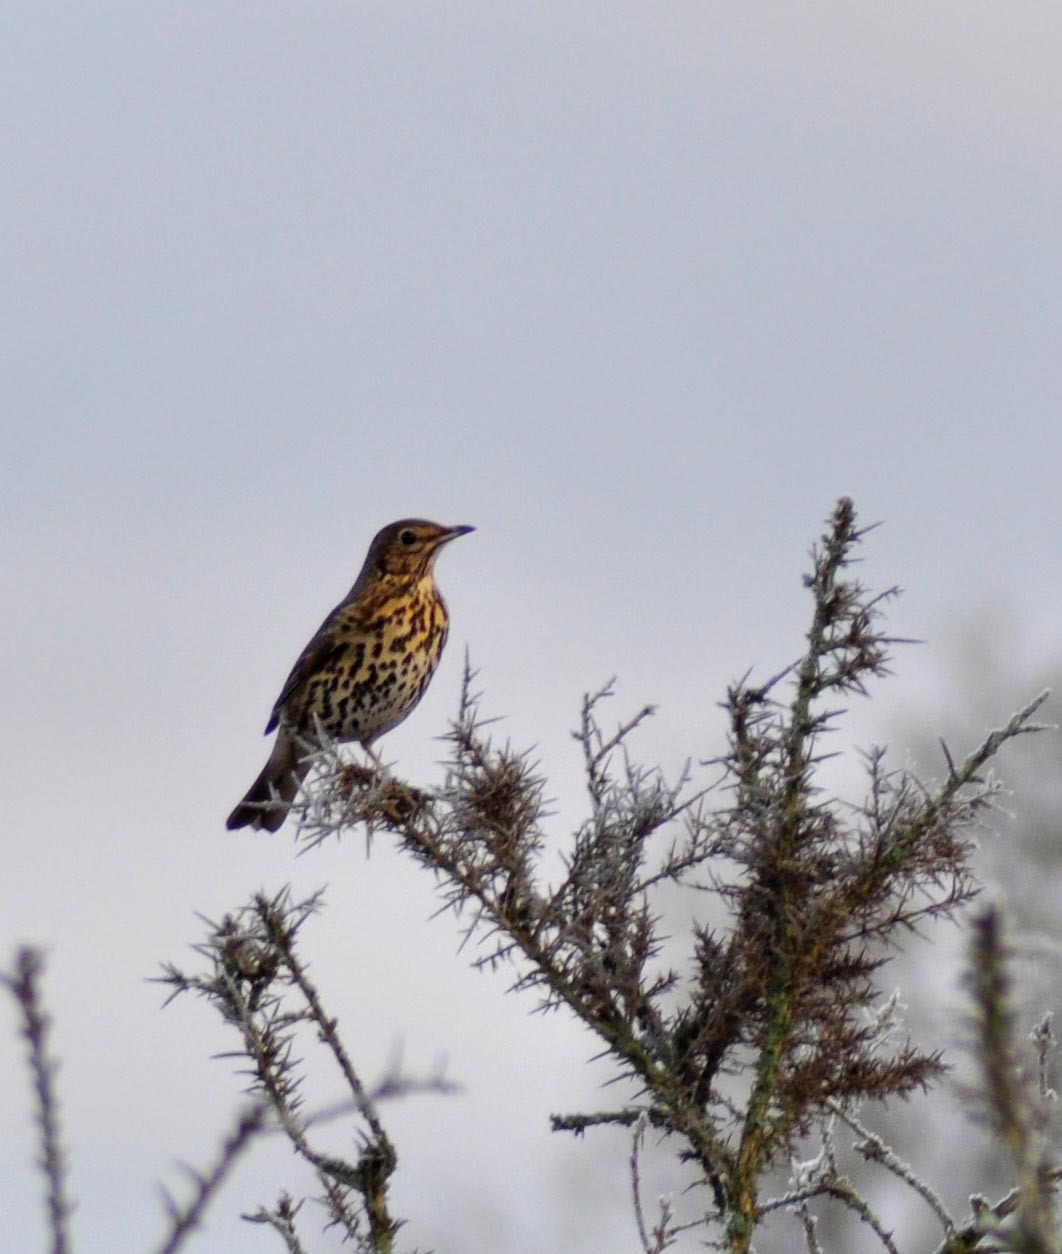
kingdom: Animalia
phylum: Chordata
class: Aves
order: Passeriformes
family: Turdidae
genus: Turdus
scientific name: Turdus philomelos
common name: Song thrush
